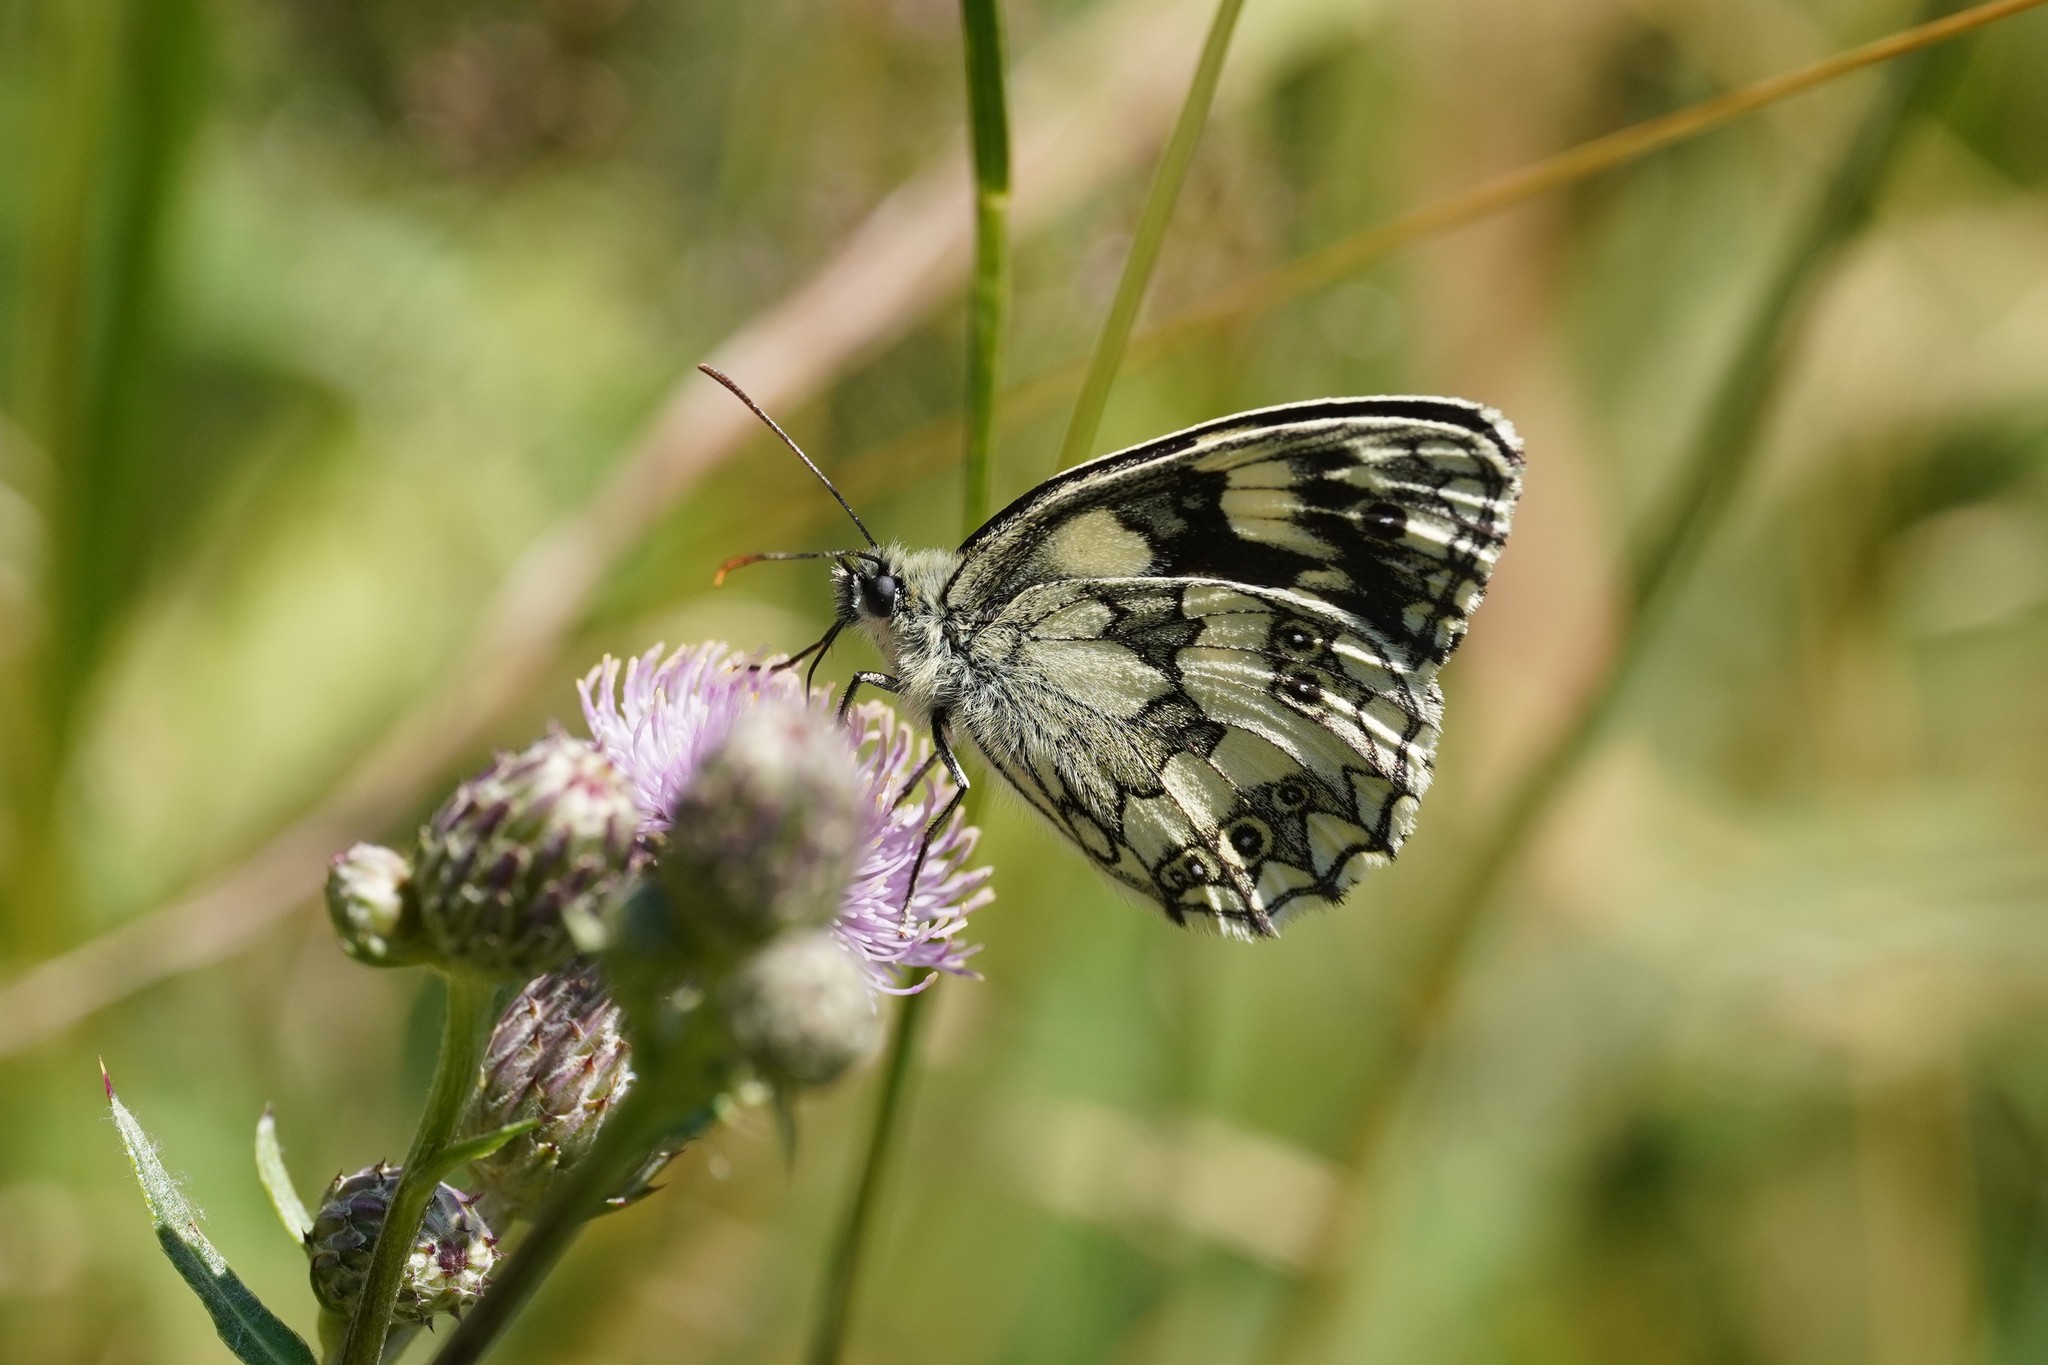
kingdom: Animalia
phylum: Arthropoda
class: Insecta
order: Lepidoptera
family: Nymphalidae
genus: Melanargia
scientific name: Melanargia galathea
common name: Marbled white
